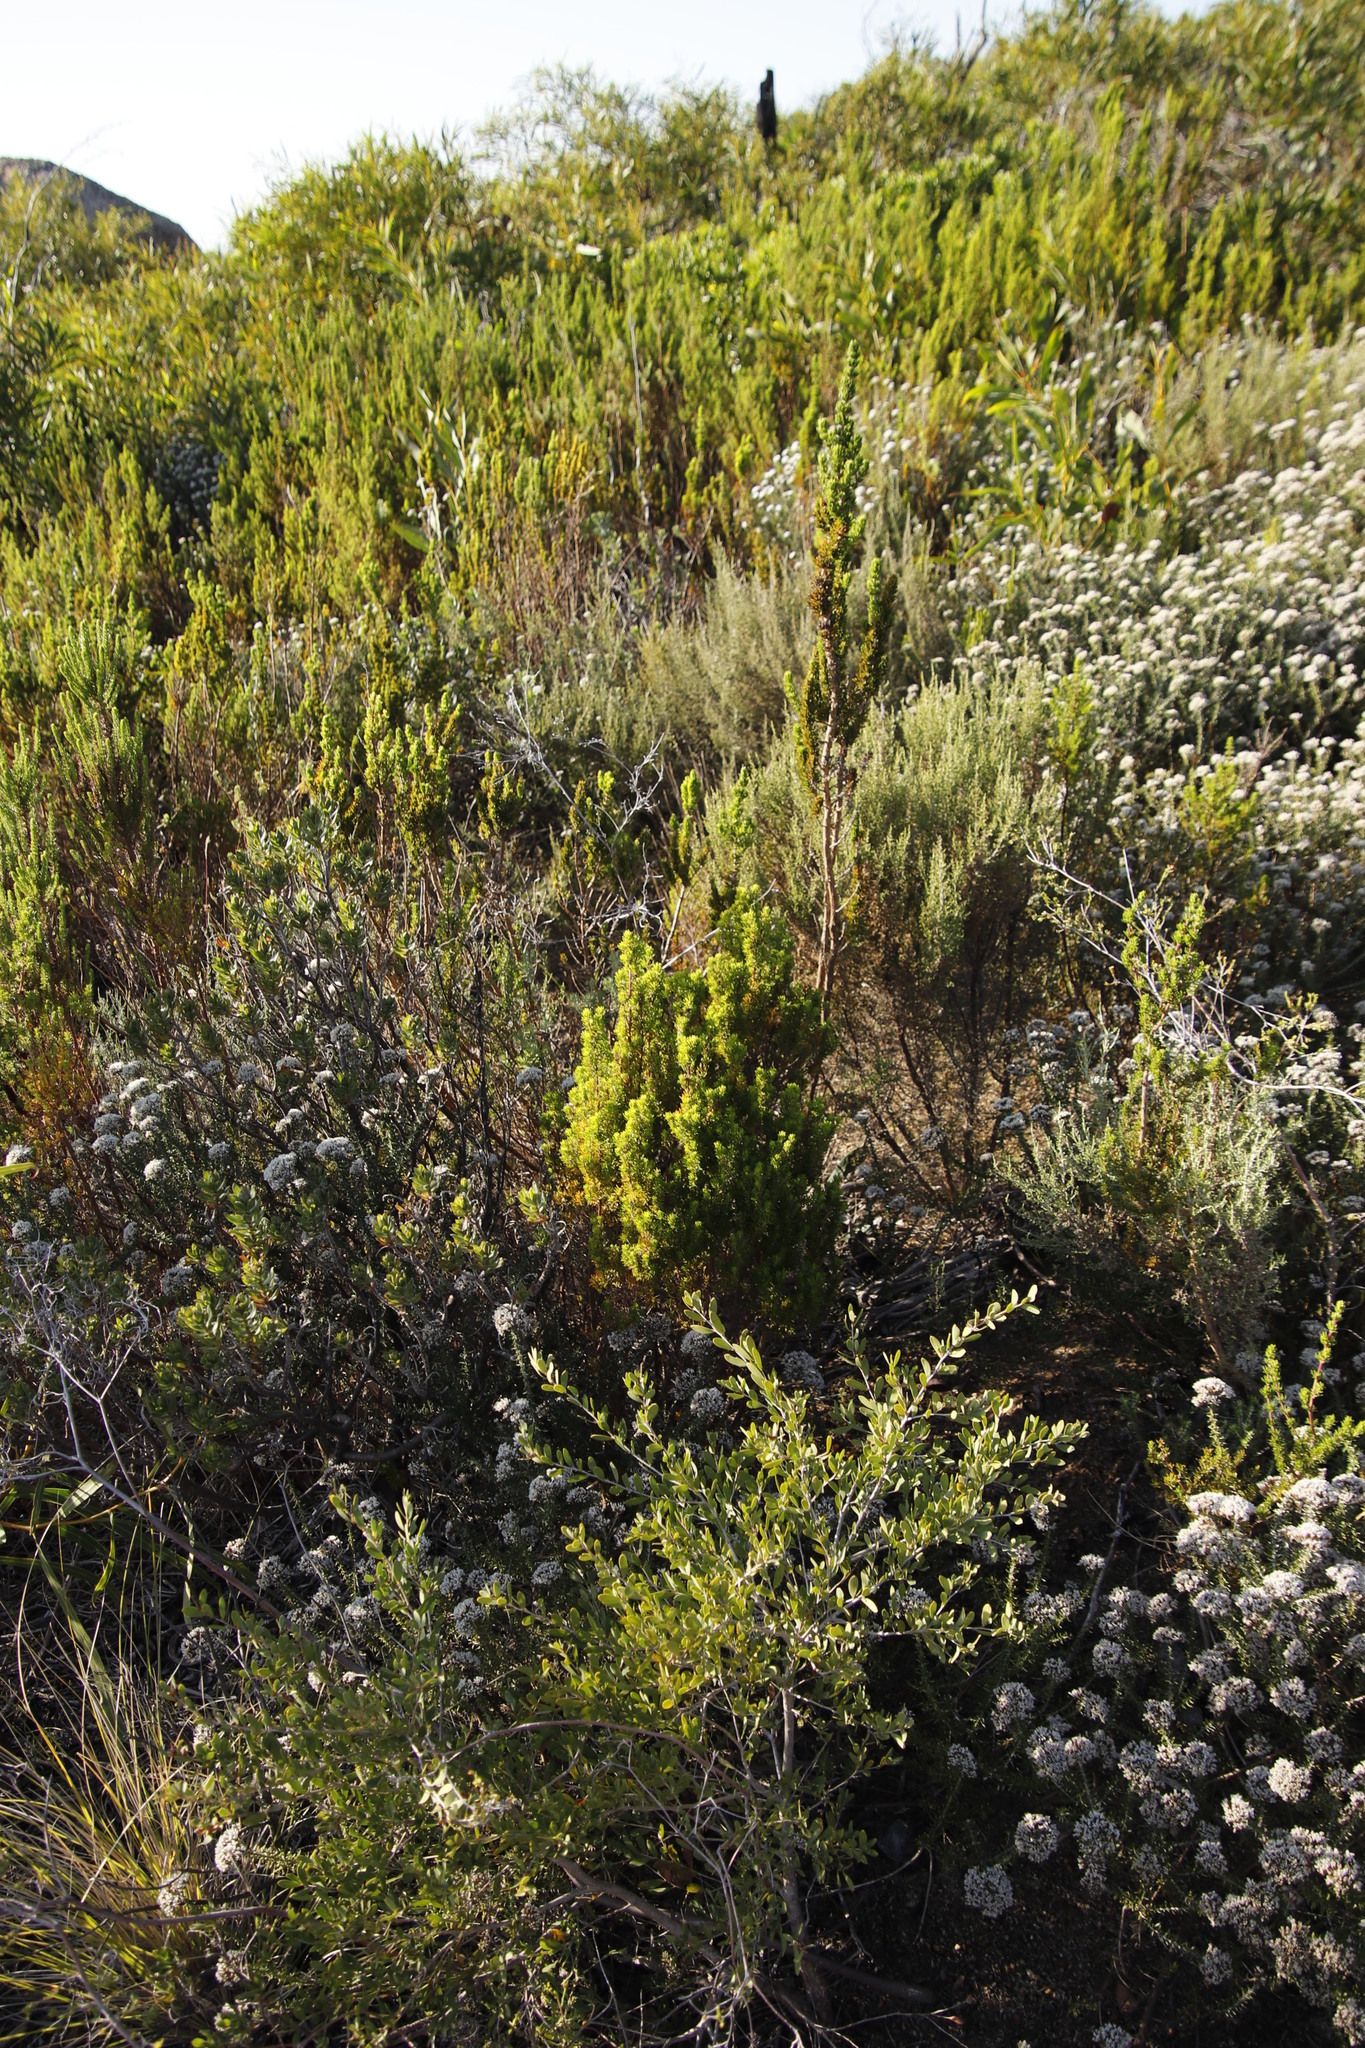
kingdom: Plantae
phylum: Tracheophyta
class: Magnoliopsida
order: Myrtales
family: Myrtaceae
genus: Leptospermum
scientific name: Leptospermum laevigatum
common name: Australian teatree
